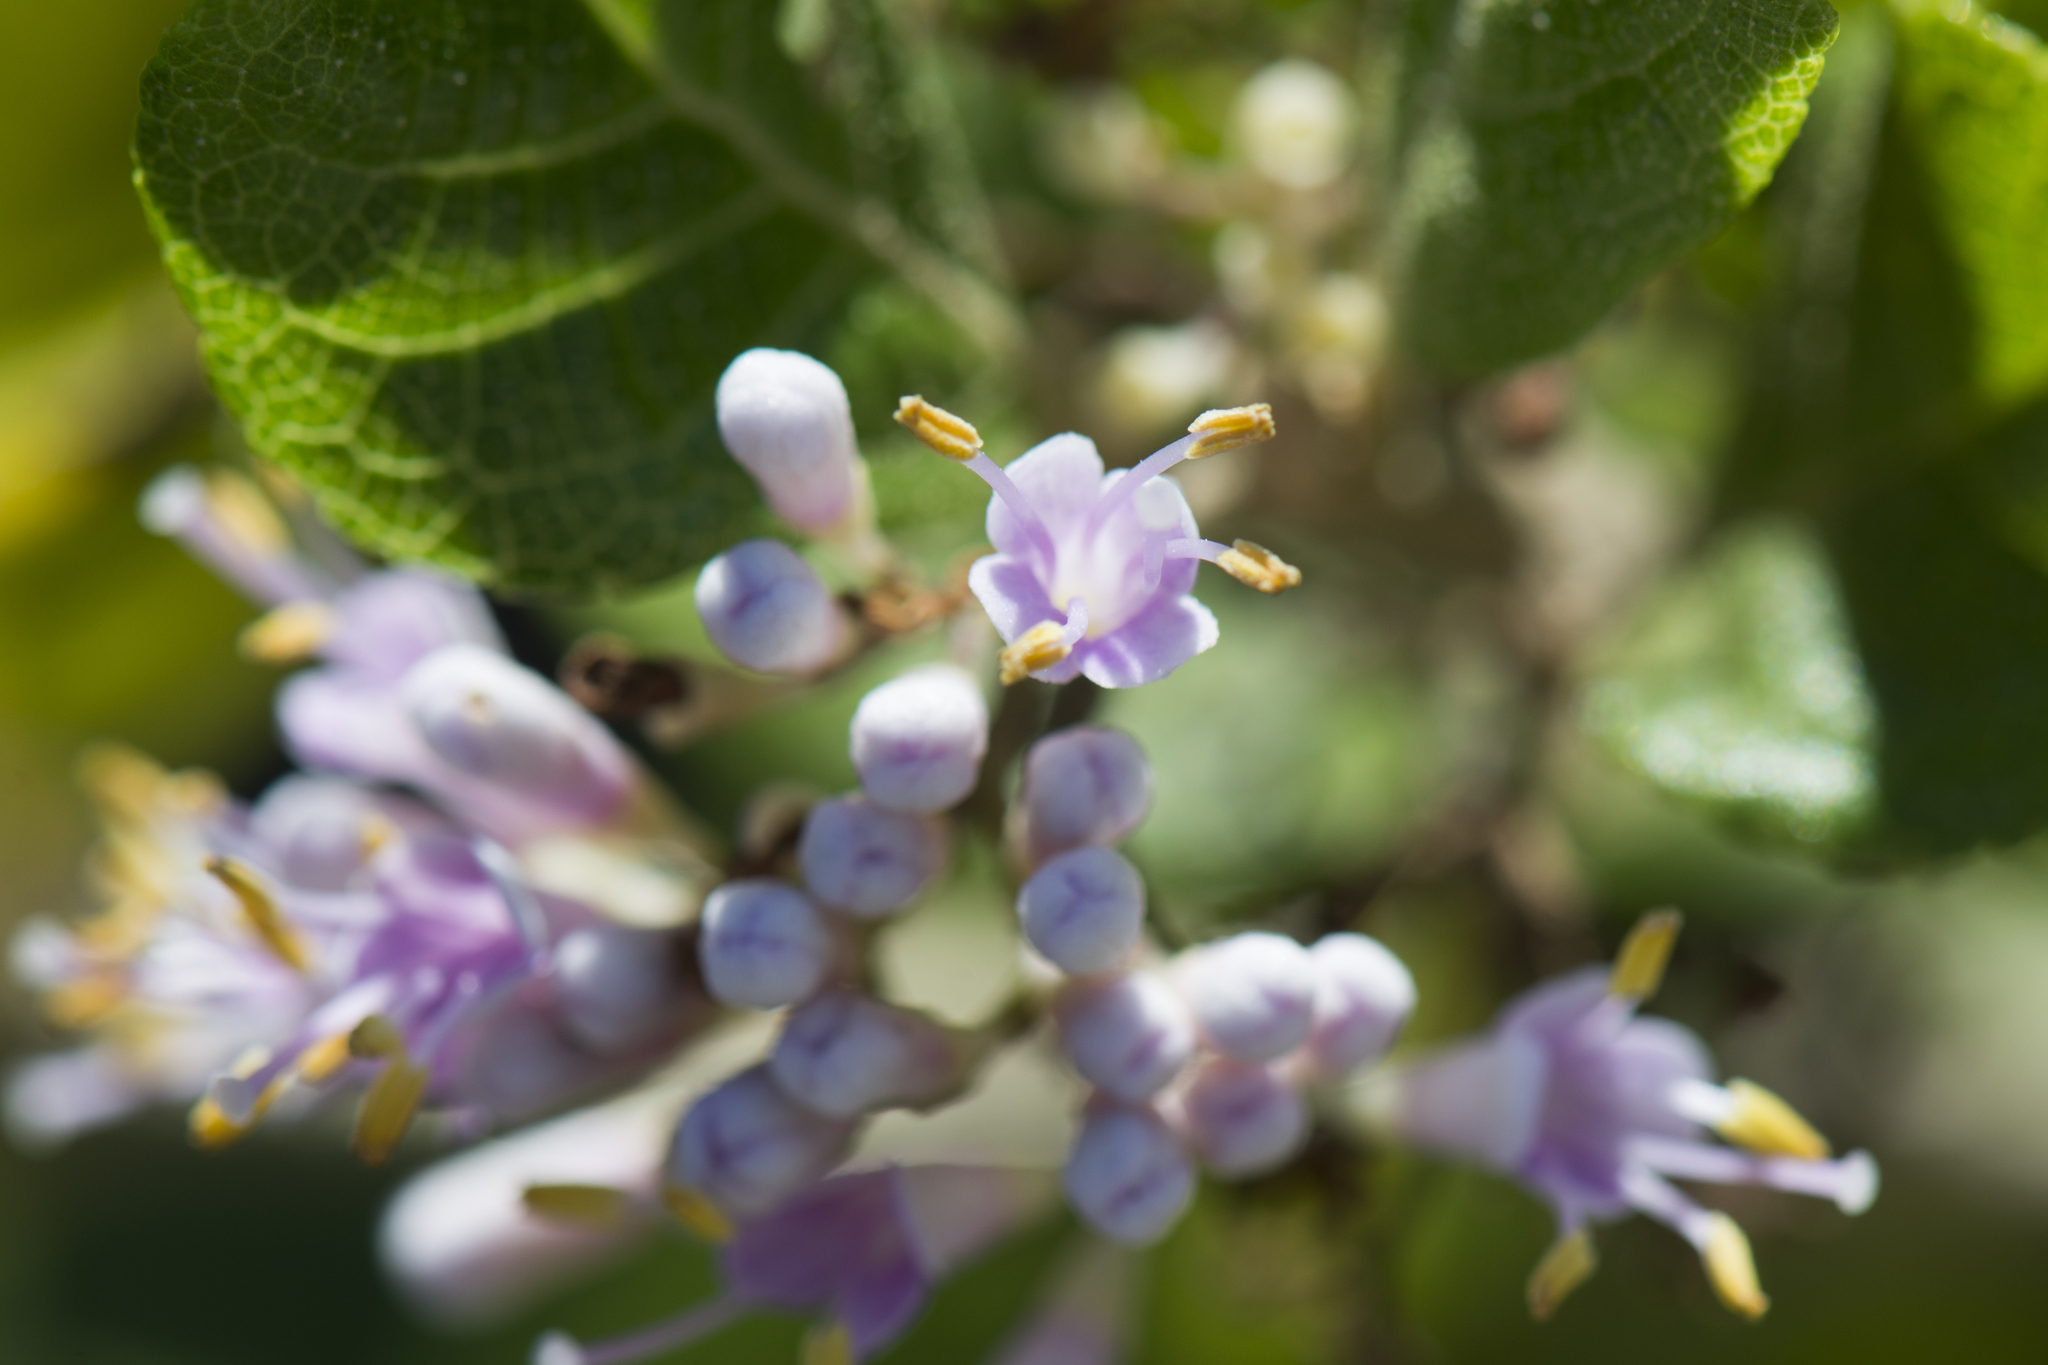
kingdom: Plantae
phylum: Tracheophyta
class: Magnoliopsida
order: Lamiales
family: Lamiaceae
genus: Callicarpa
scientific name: Callicarpa japonica
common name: Japanese beauty-berry
